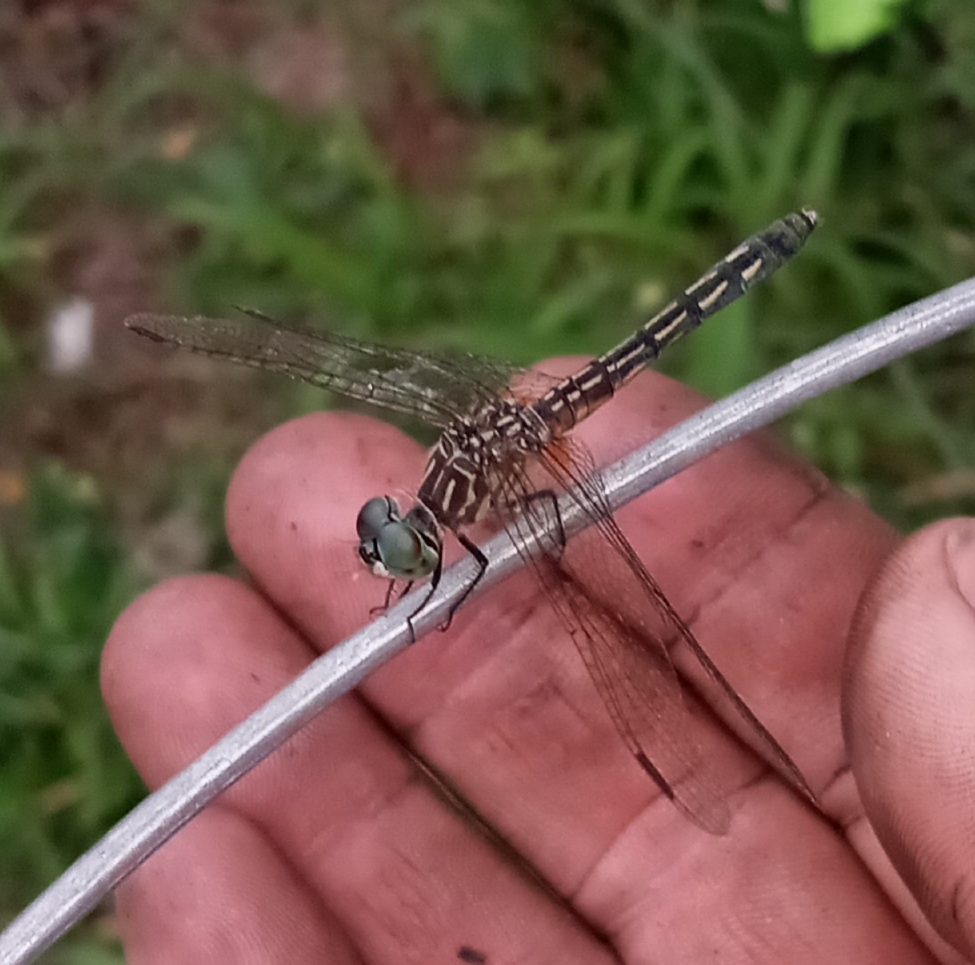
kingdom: Animalia
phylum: Arthropoda
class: Insecta
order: Odonata
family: Libellulidae
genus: Pachydiplax
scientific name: Pachydiplax longipennis
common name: Blue dasher
